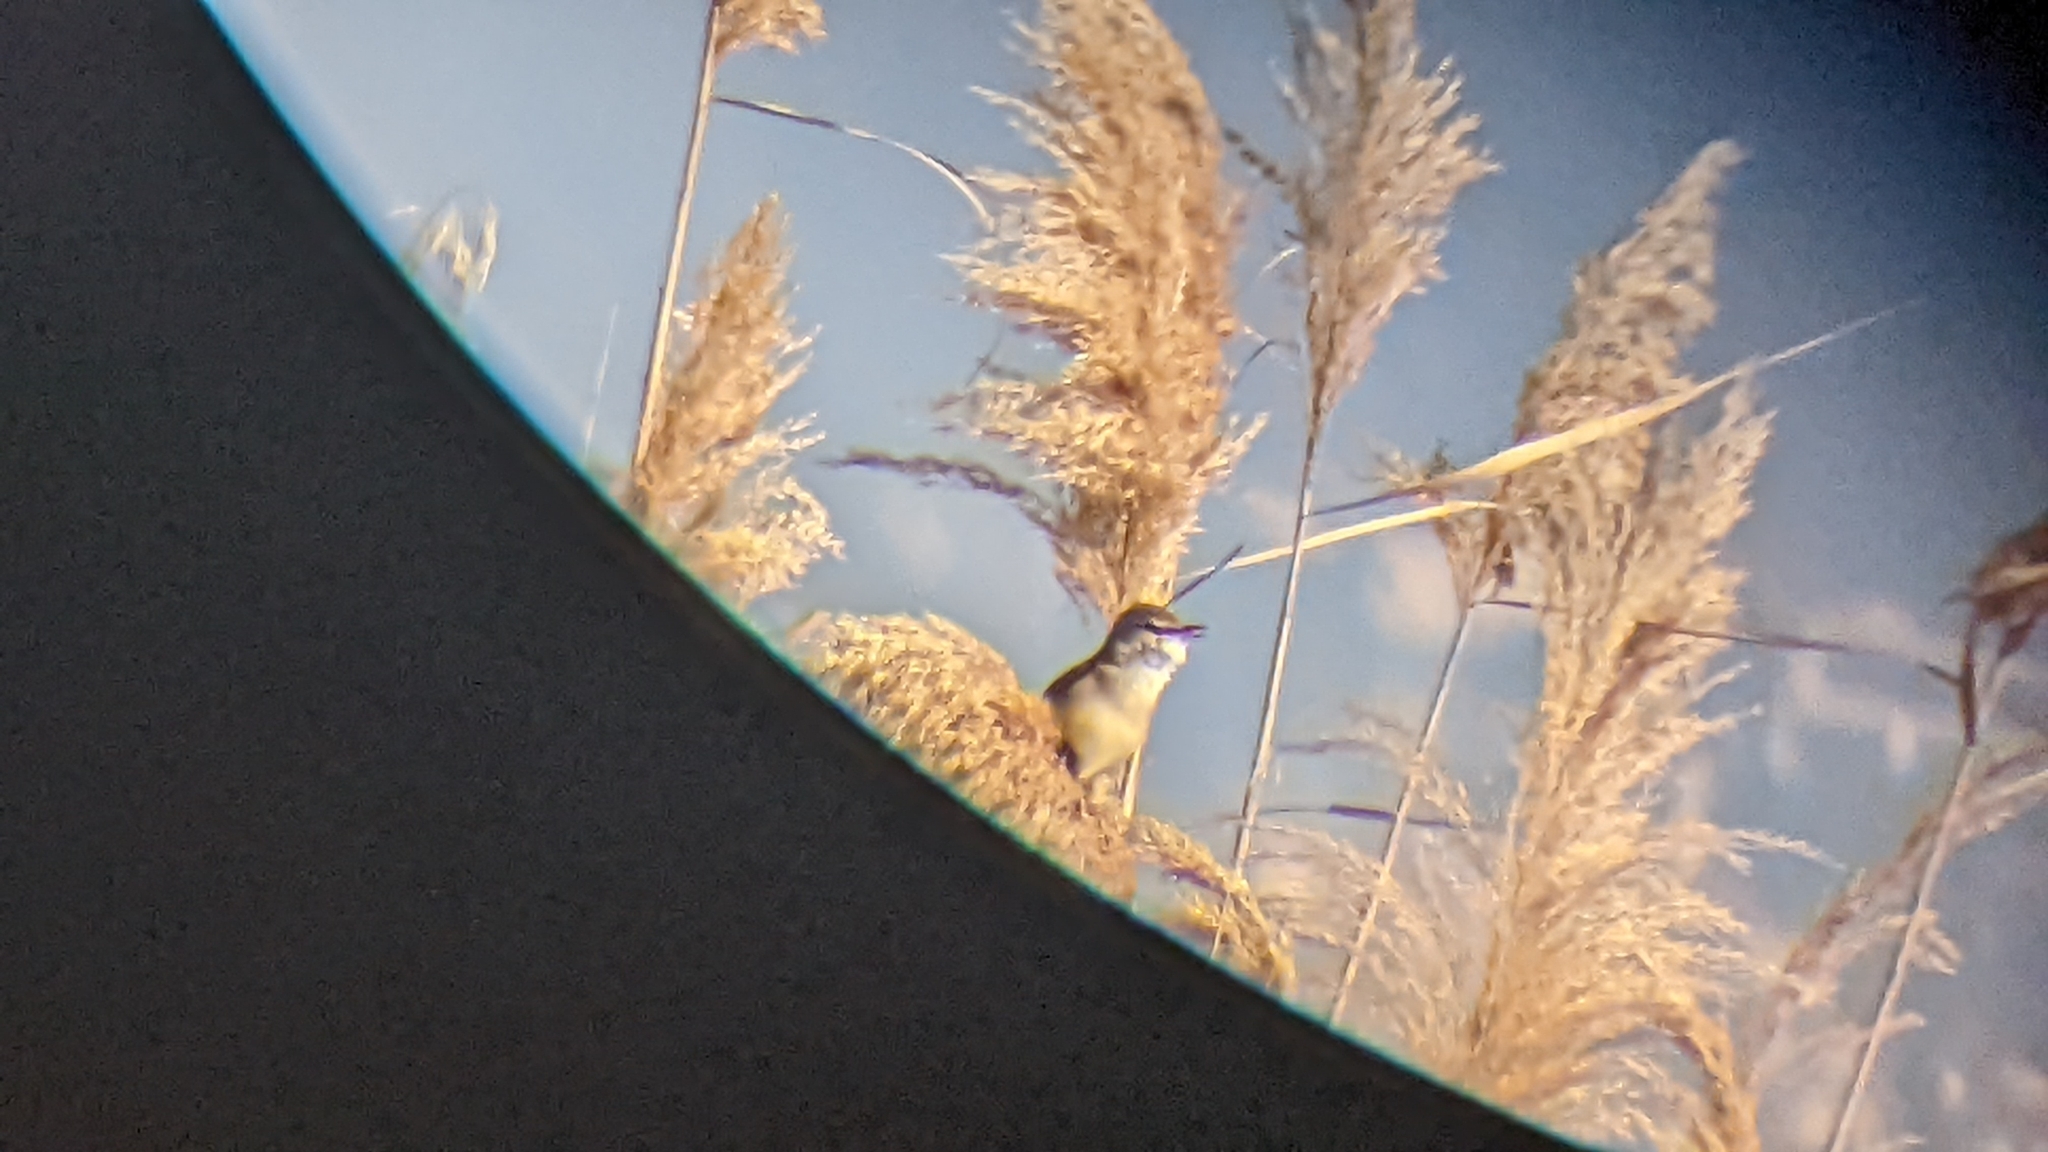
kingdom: Animalia
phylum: Chordata
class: Aves
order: Passeriformes
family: Acrocephalidae
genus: Acrocephalus
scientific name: Acrocephalus arundinaceus
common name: Great reed warbler
